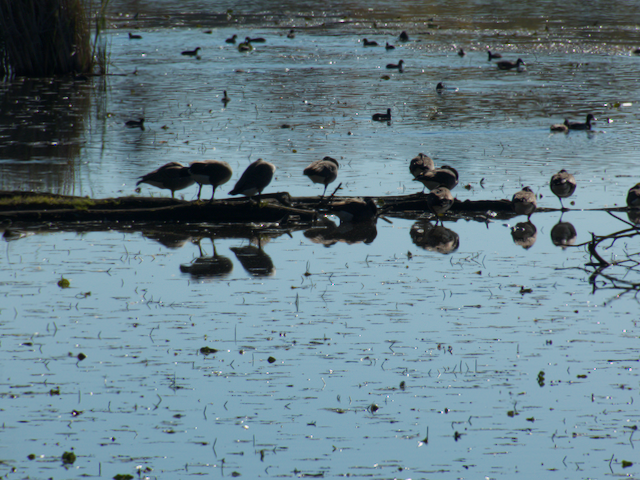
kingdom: Animalia
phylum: Chordata
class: Aves
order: Gruiformes
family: Rallidae
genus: Fulica
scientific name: Fulica americana
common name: American coot
